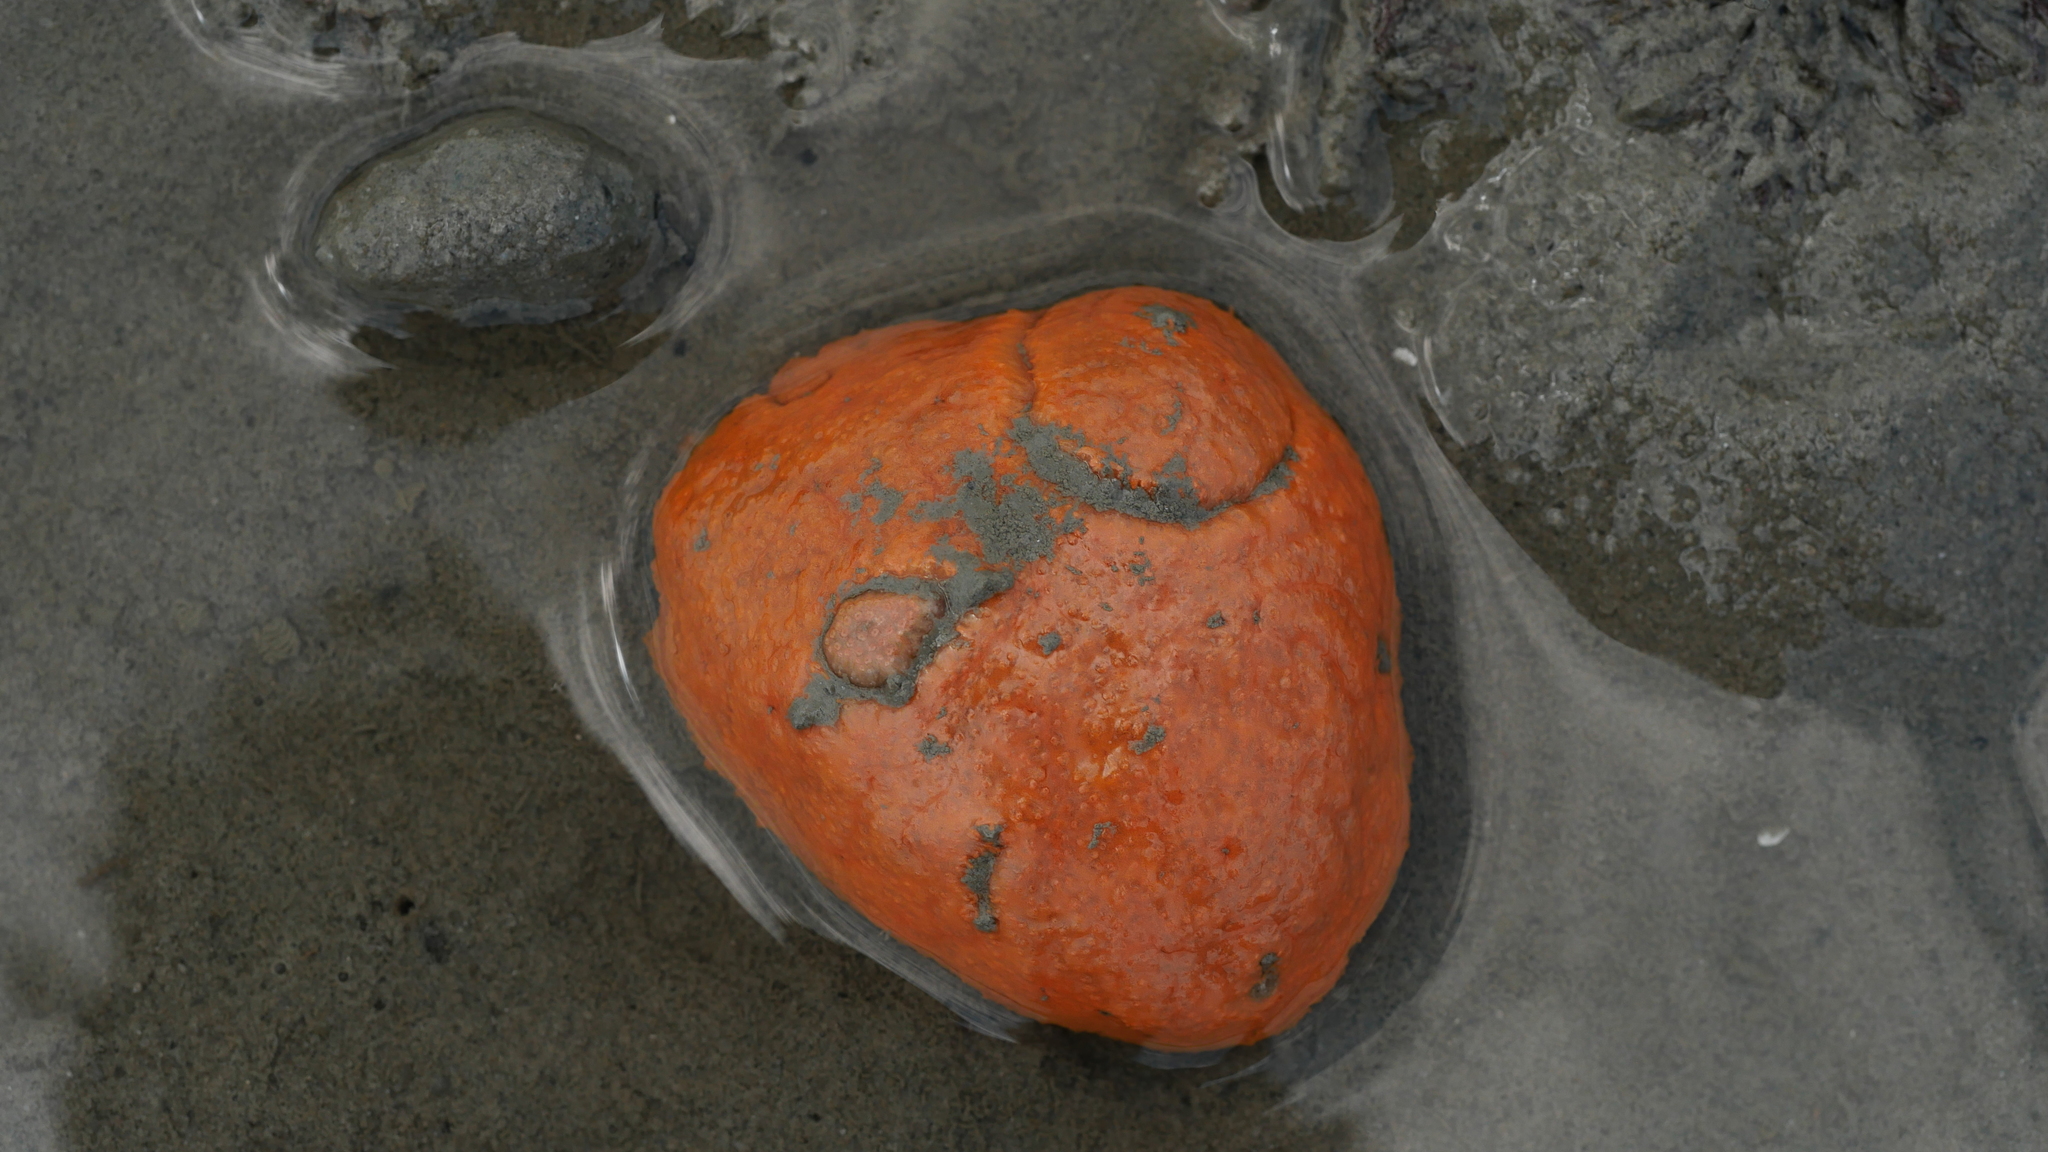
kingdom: Animalia
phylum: Chordata
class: Ascidiacea
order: Aplousobranchia
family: Polyclinidae
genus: Aplidium
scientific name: Aplidium stellatum
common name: Atlantic sea pork
